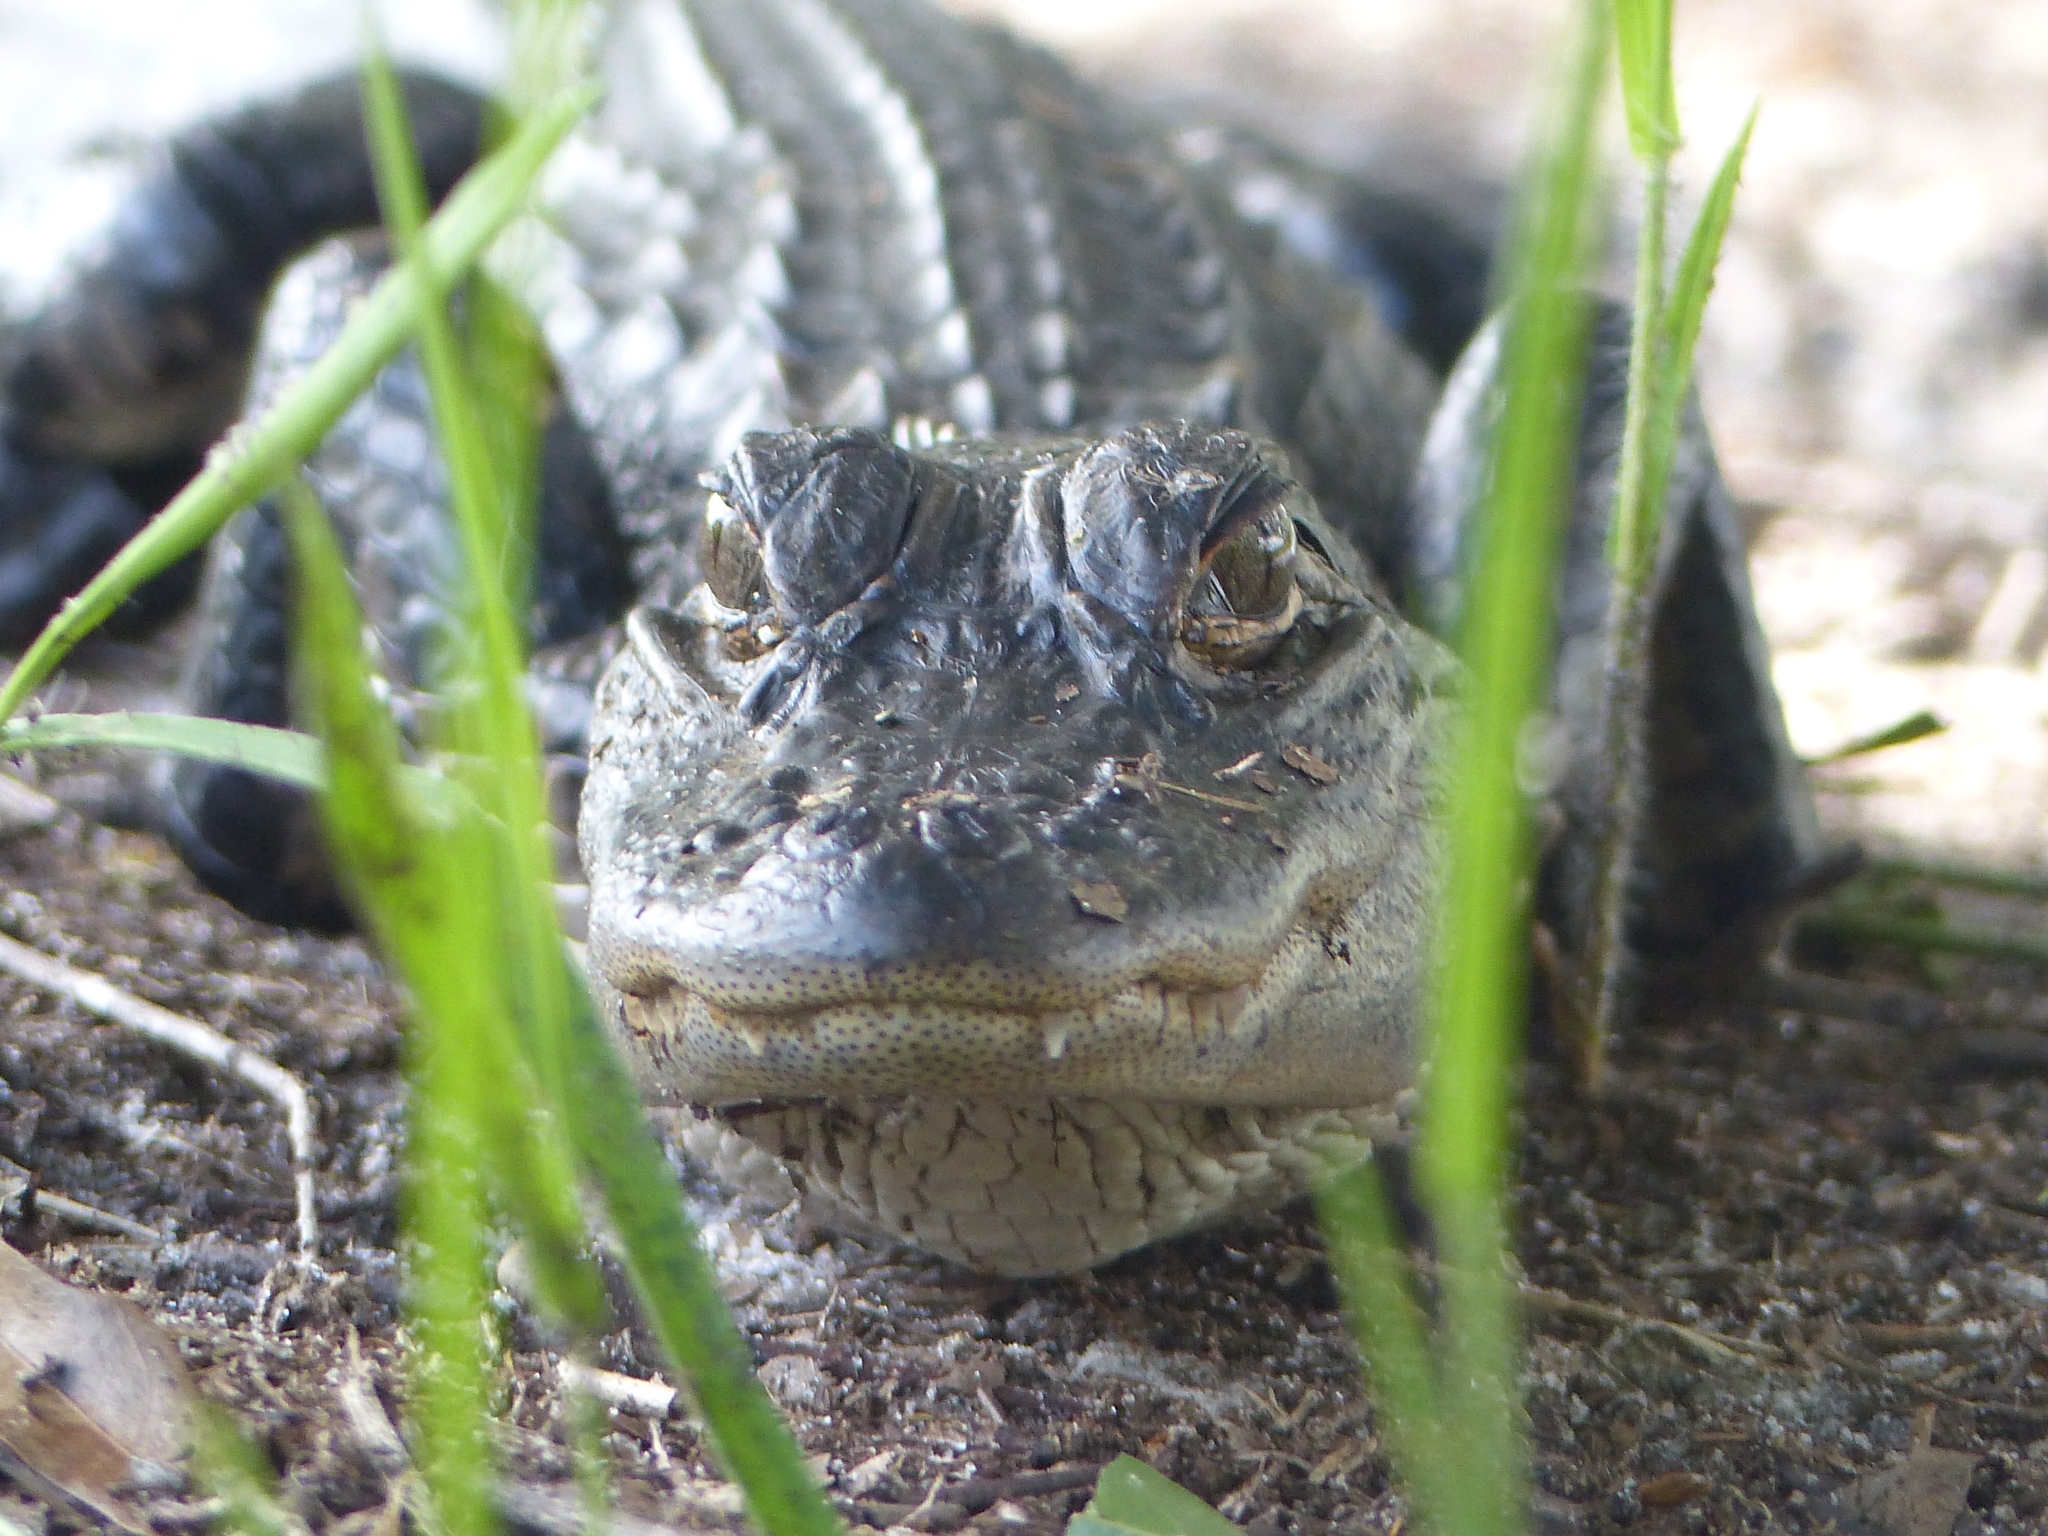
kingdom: Animalia
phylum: Chordata
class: Crocodylia
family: Alligatoridae
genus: Alligator
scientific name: Alligator mississippiensis
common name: American alligator
